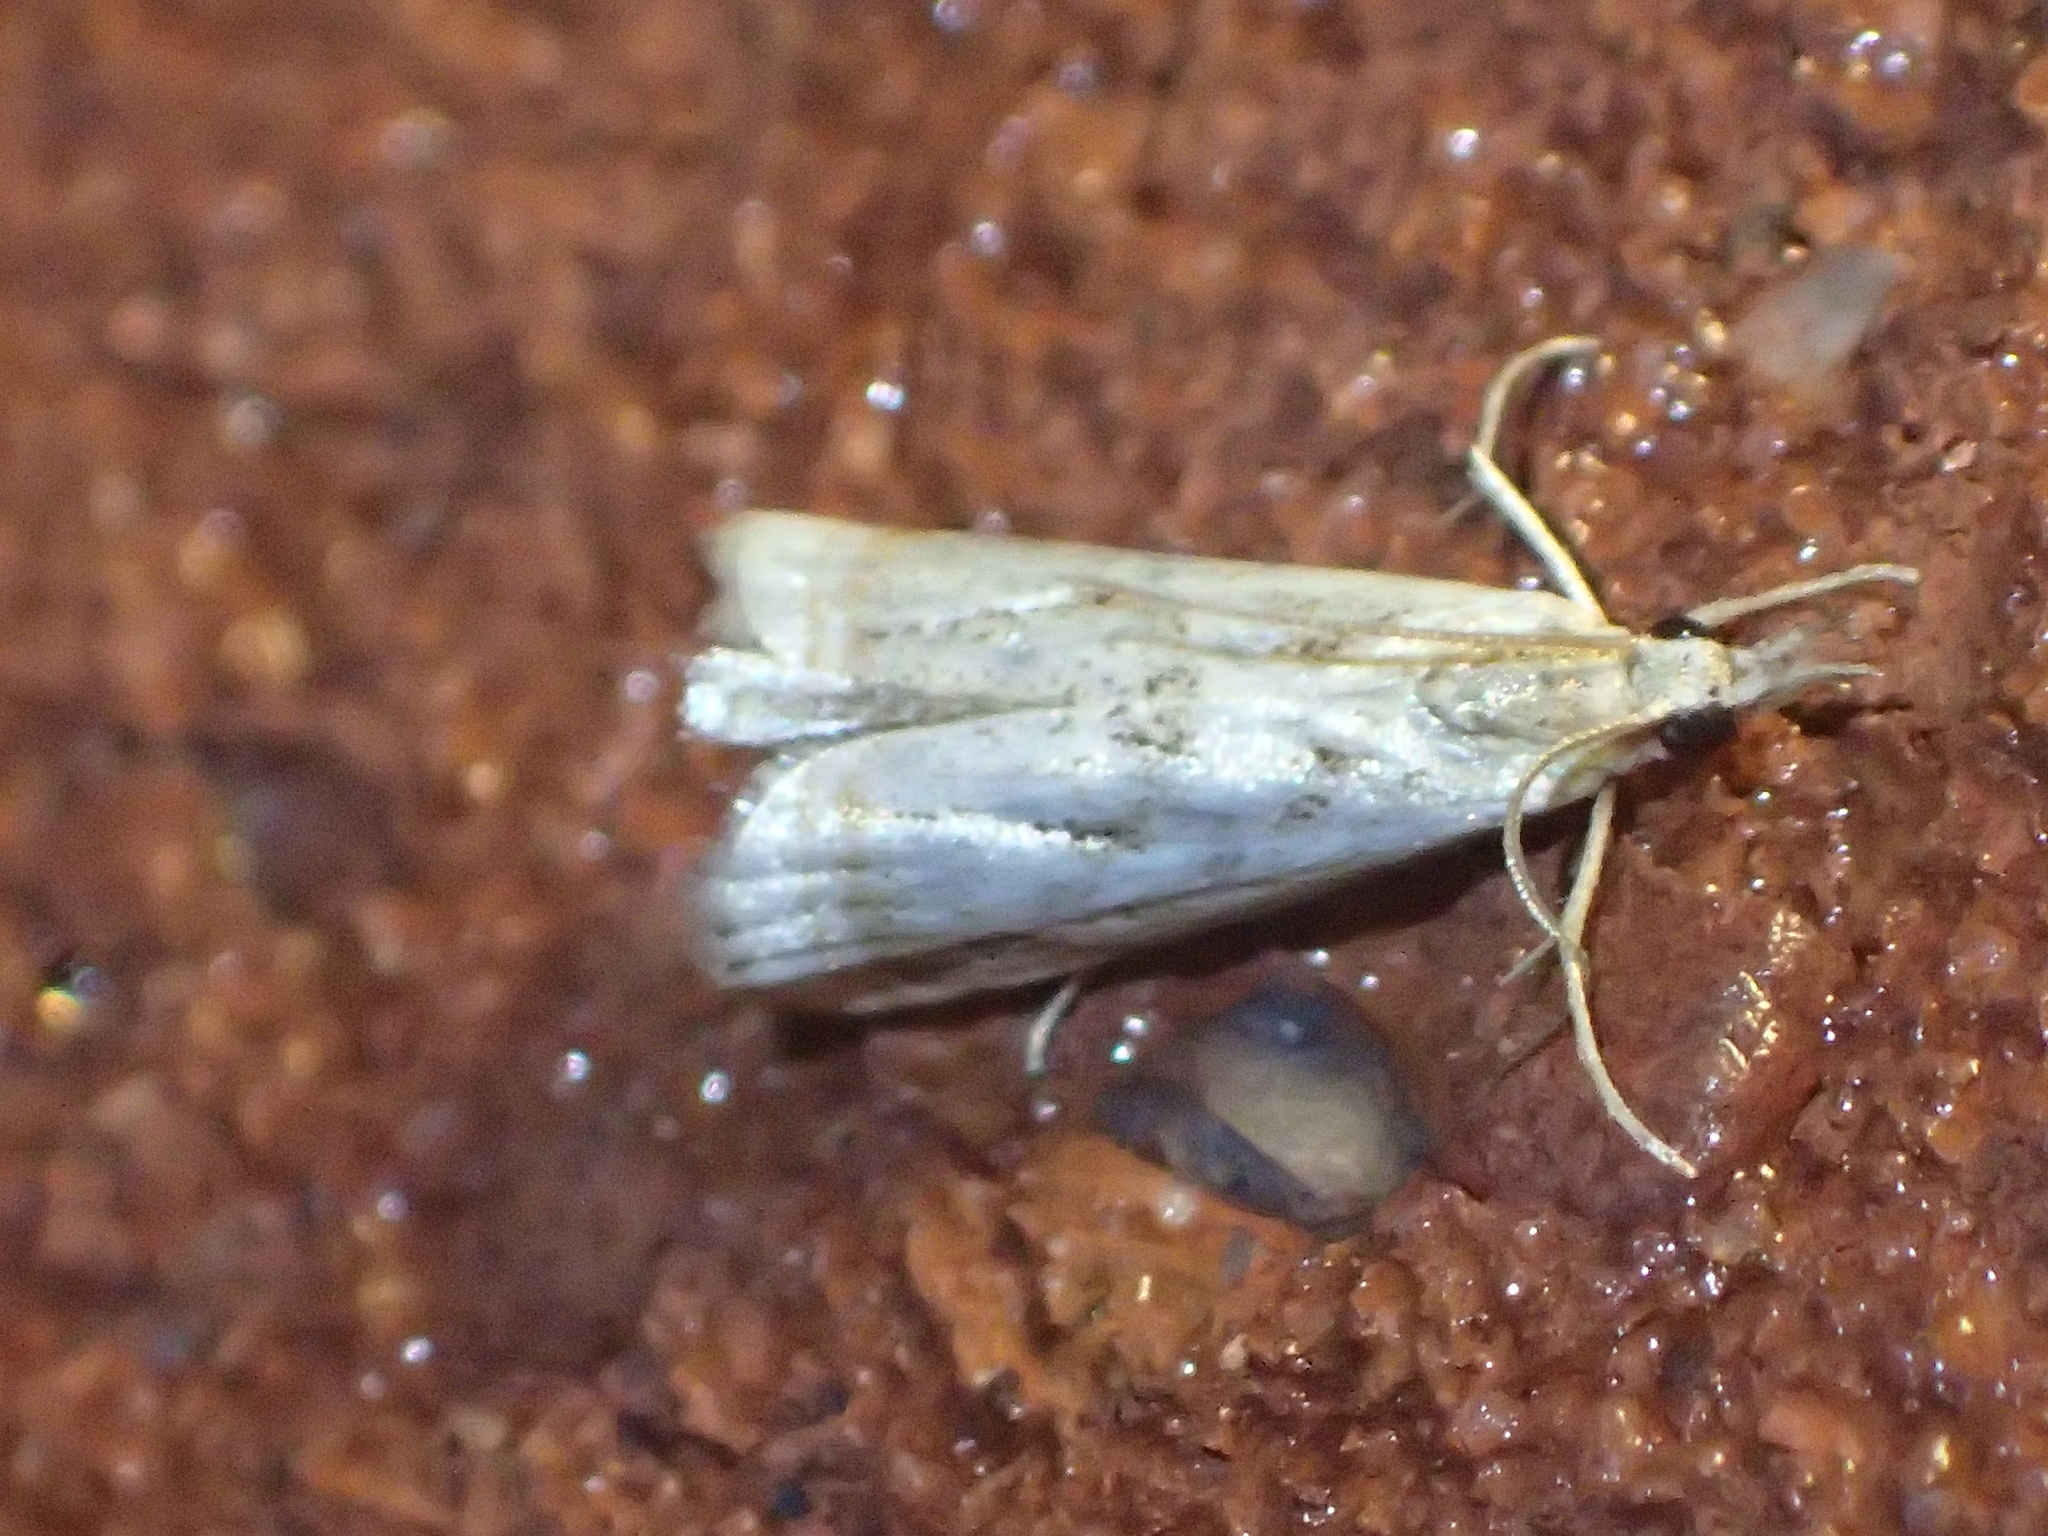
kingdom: Animalia
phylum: Arthropoda
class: Insecta
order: Lepidoptera
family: Crambidae
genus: Microcrambus
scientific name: Microcrambus elegans
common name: Elegant grass-veneer
